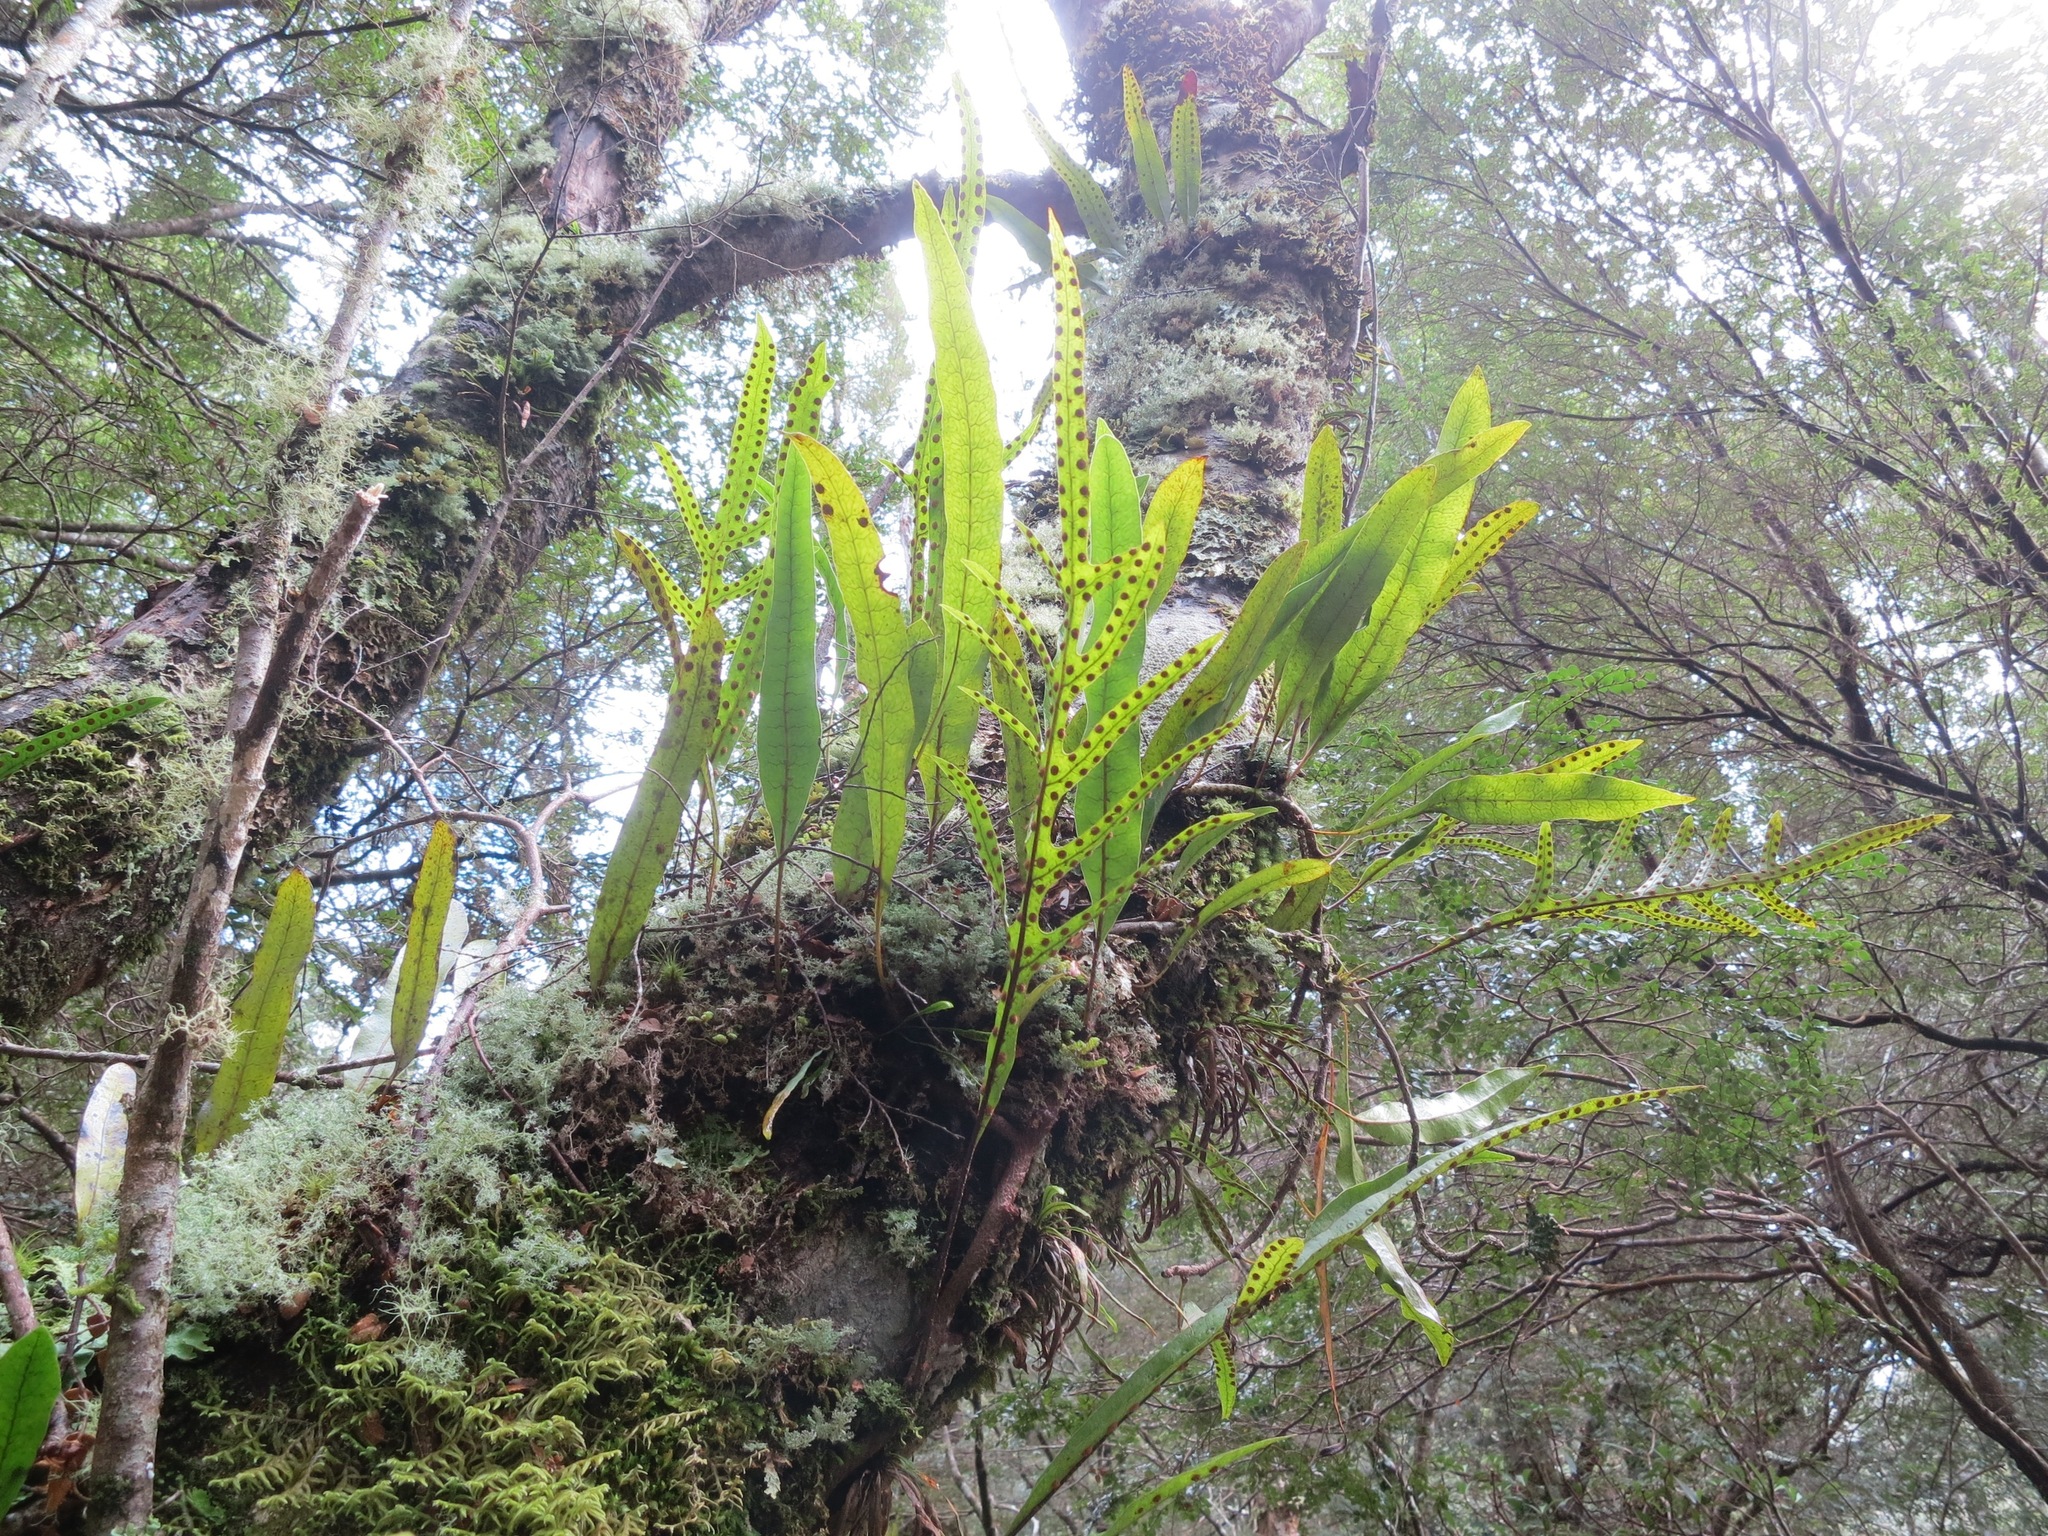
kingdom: Plantae
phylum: Tracheophyta
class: Polypodiopsida
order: Polypodiales
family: Polypodiaceae
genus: Lecanopteris
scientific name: Lecanopteris pustulata
